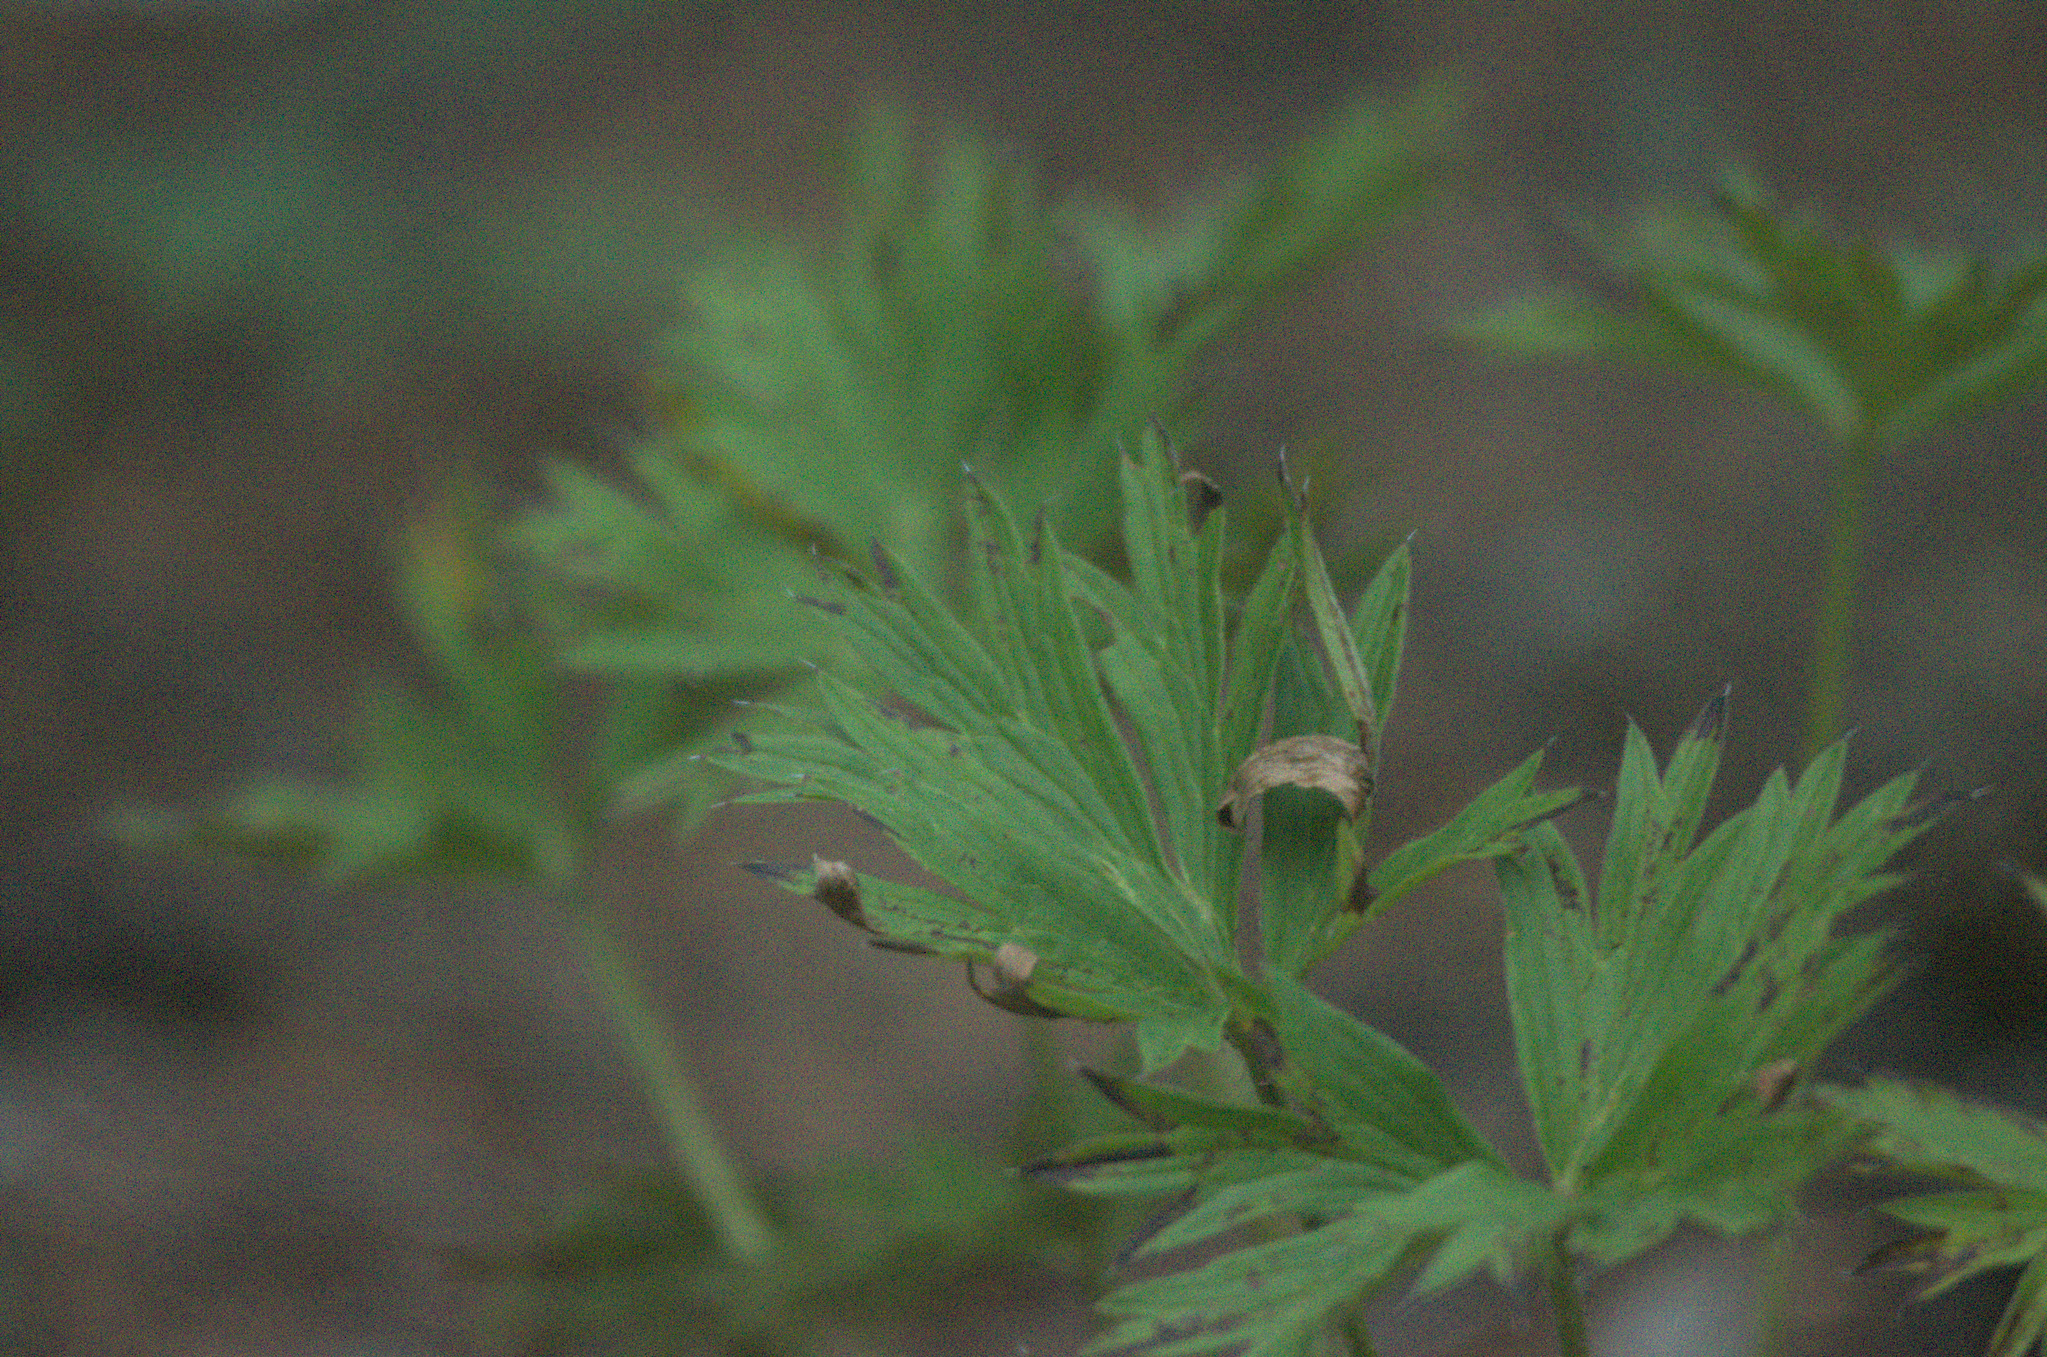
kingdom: Plantae
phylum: Tracheophyta
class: Magnoliopsida
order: Ranunculales
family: Ranunculaceae
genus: Pulsatilla
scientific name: Pulsatilla patens
